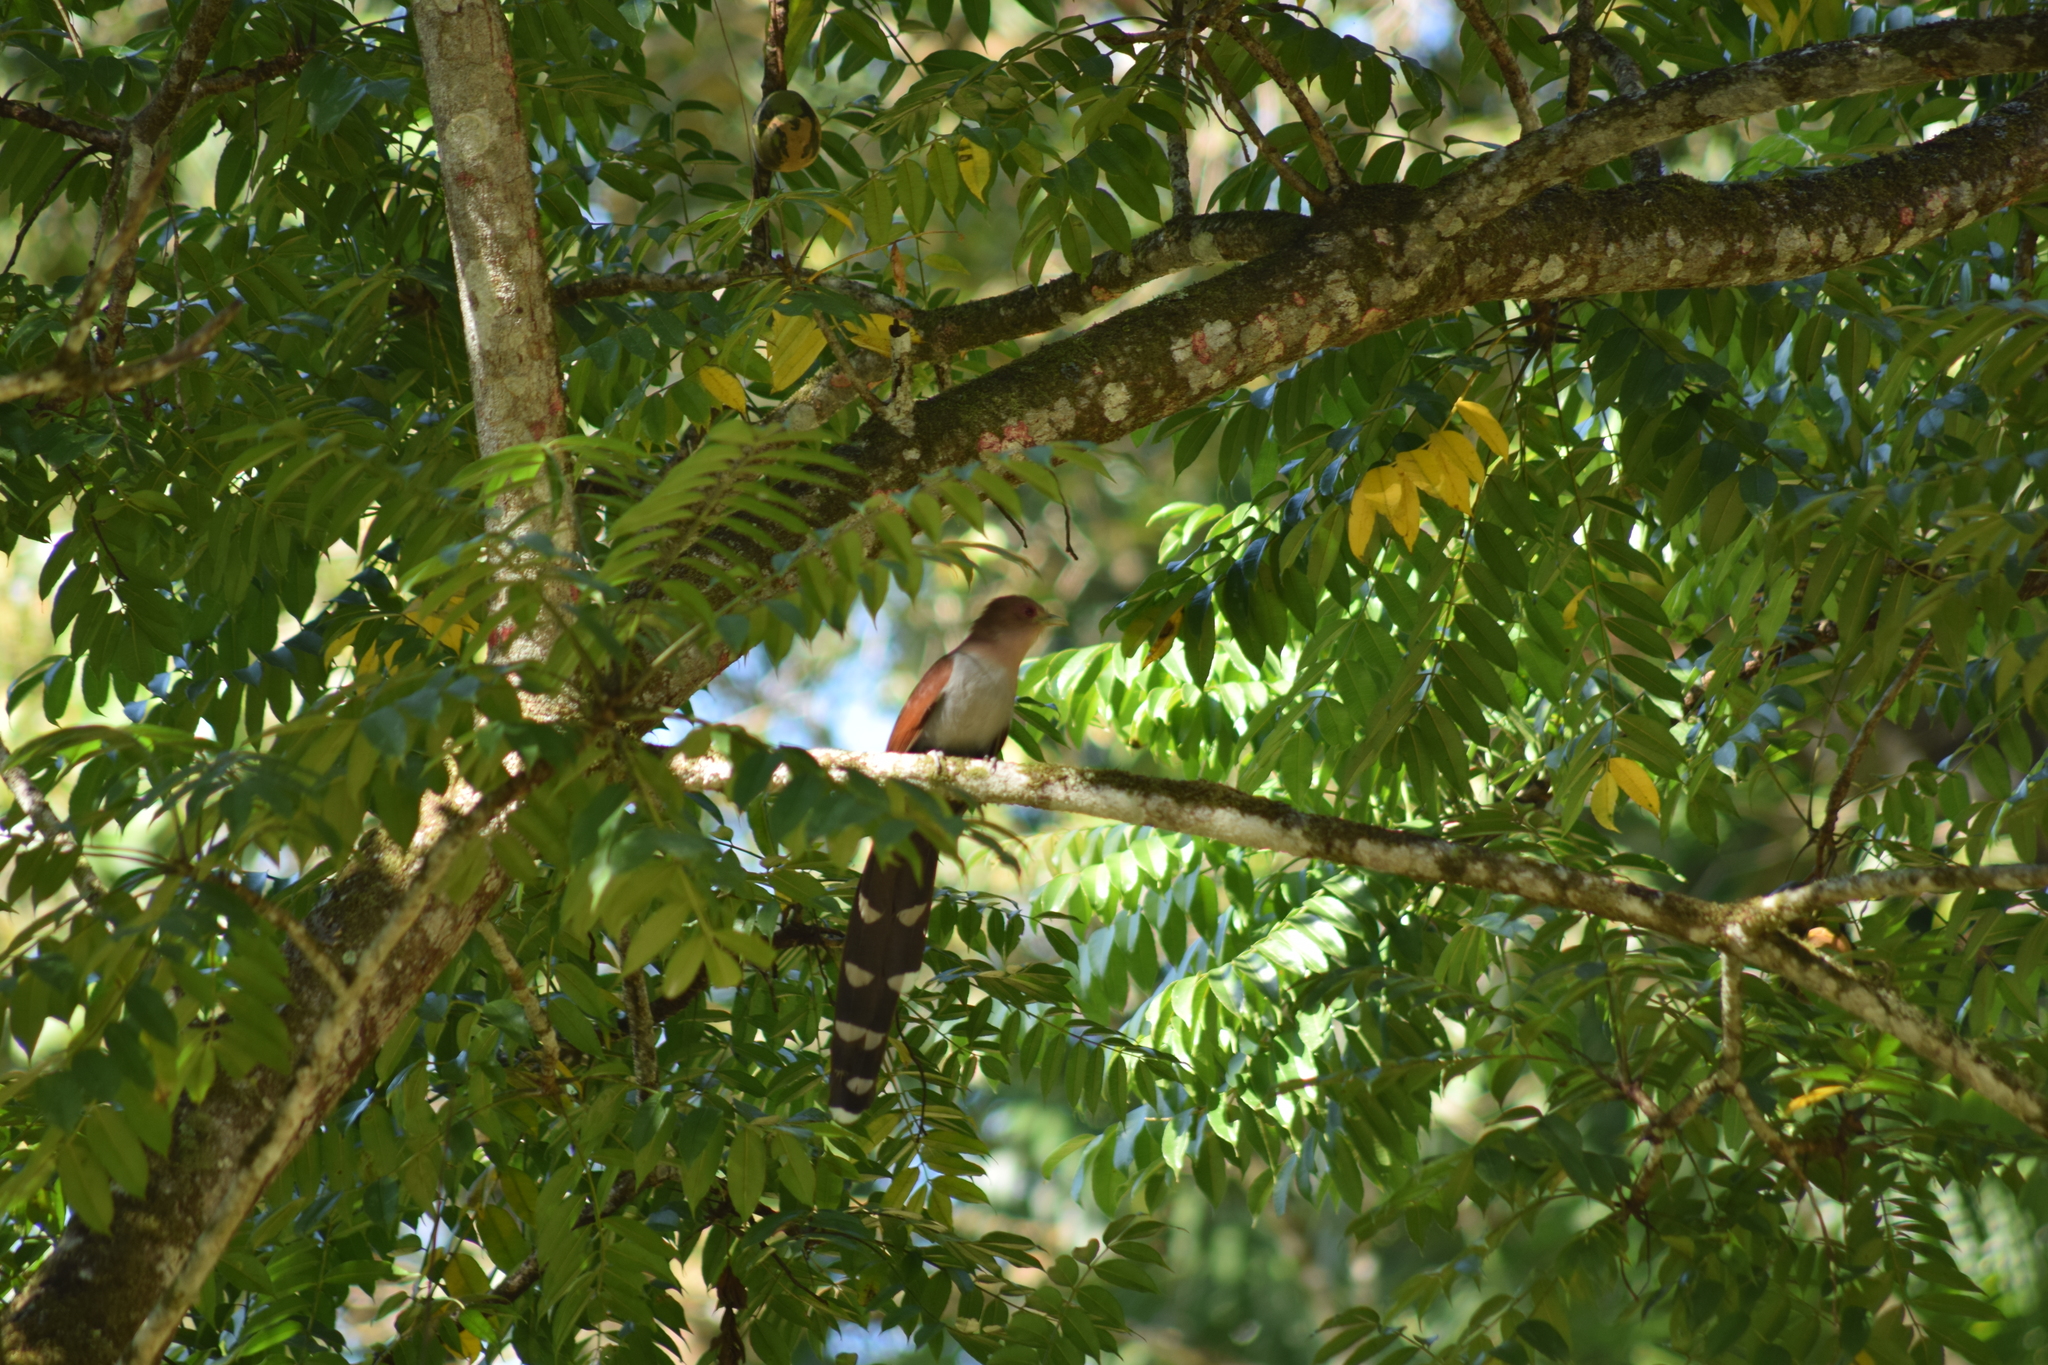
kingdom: Animalia
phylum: Chordata
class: Aves
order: Cuculiformes
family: Cuculidae
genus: Piaya
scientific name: Piaya cayana
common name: Squirrel cuckoo
